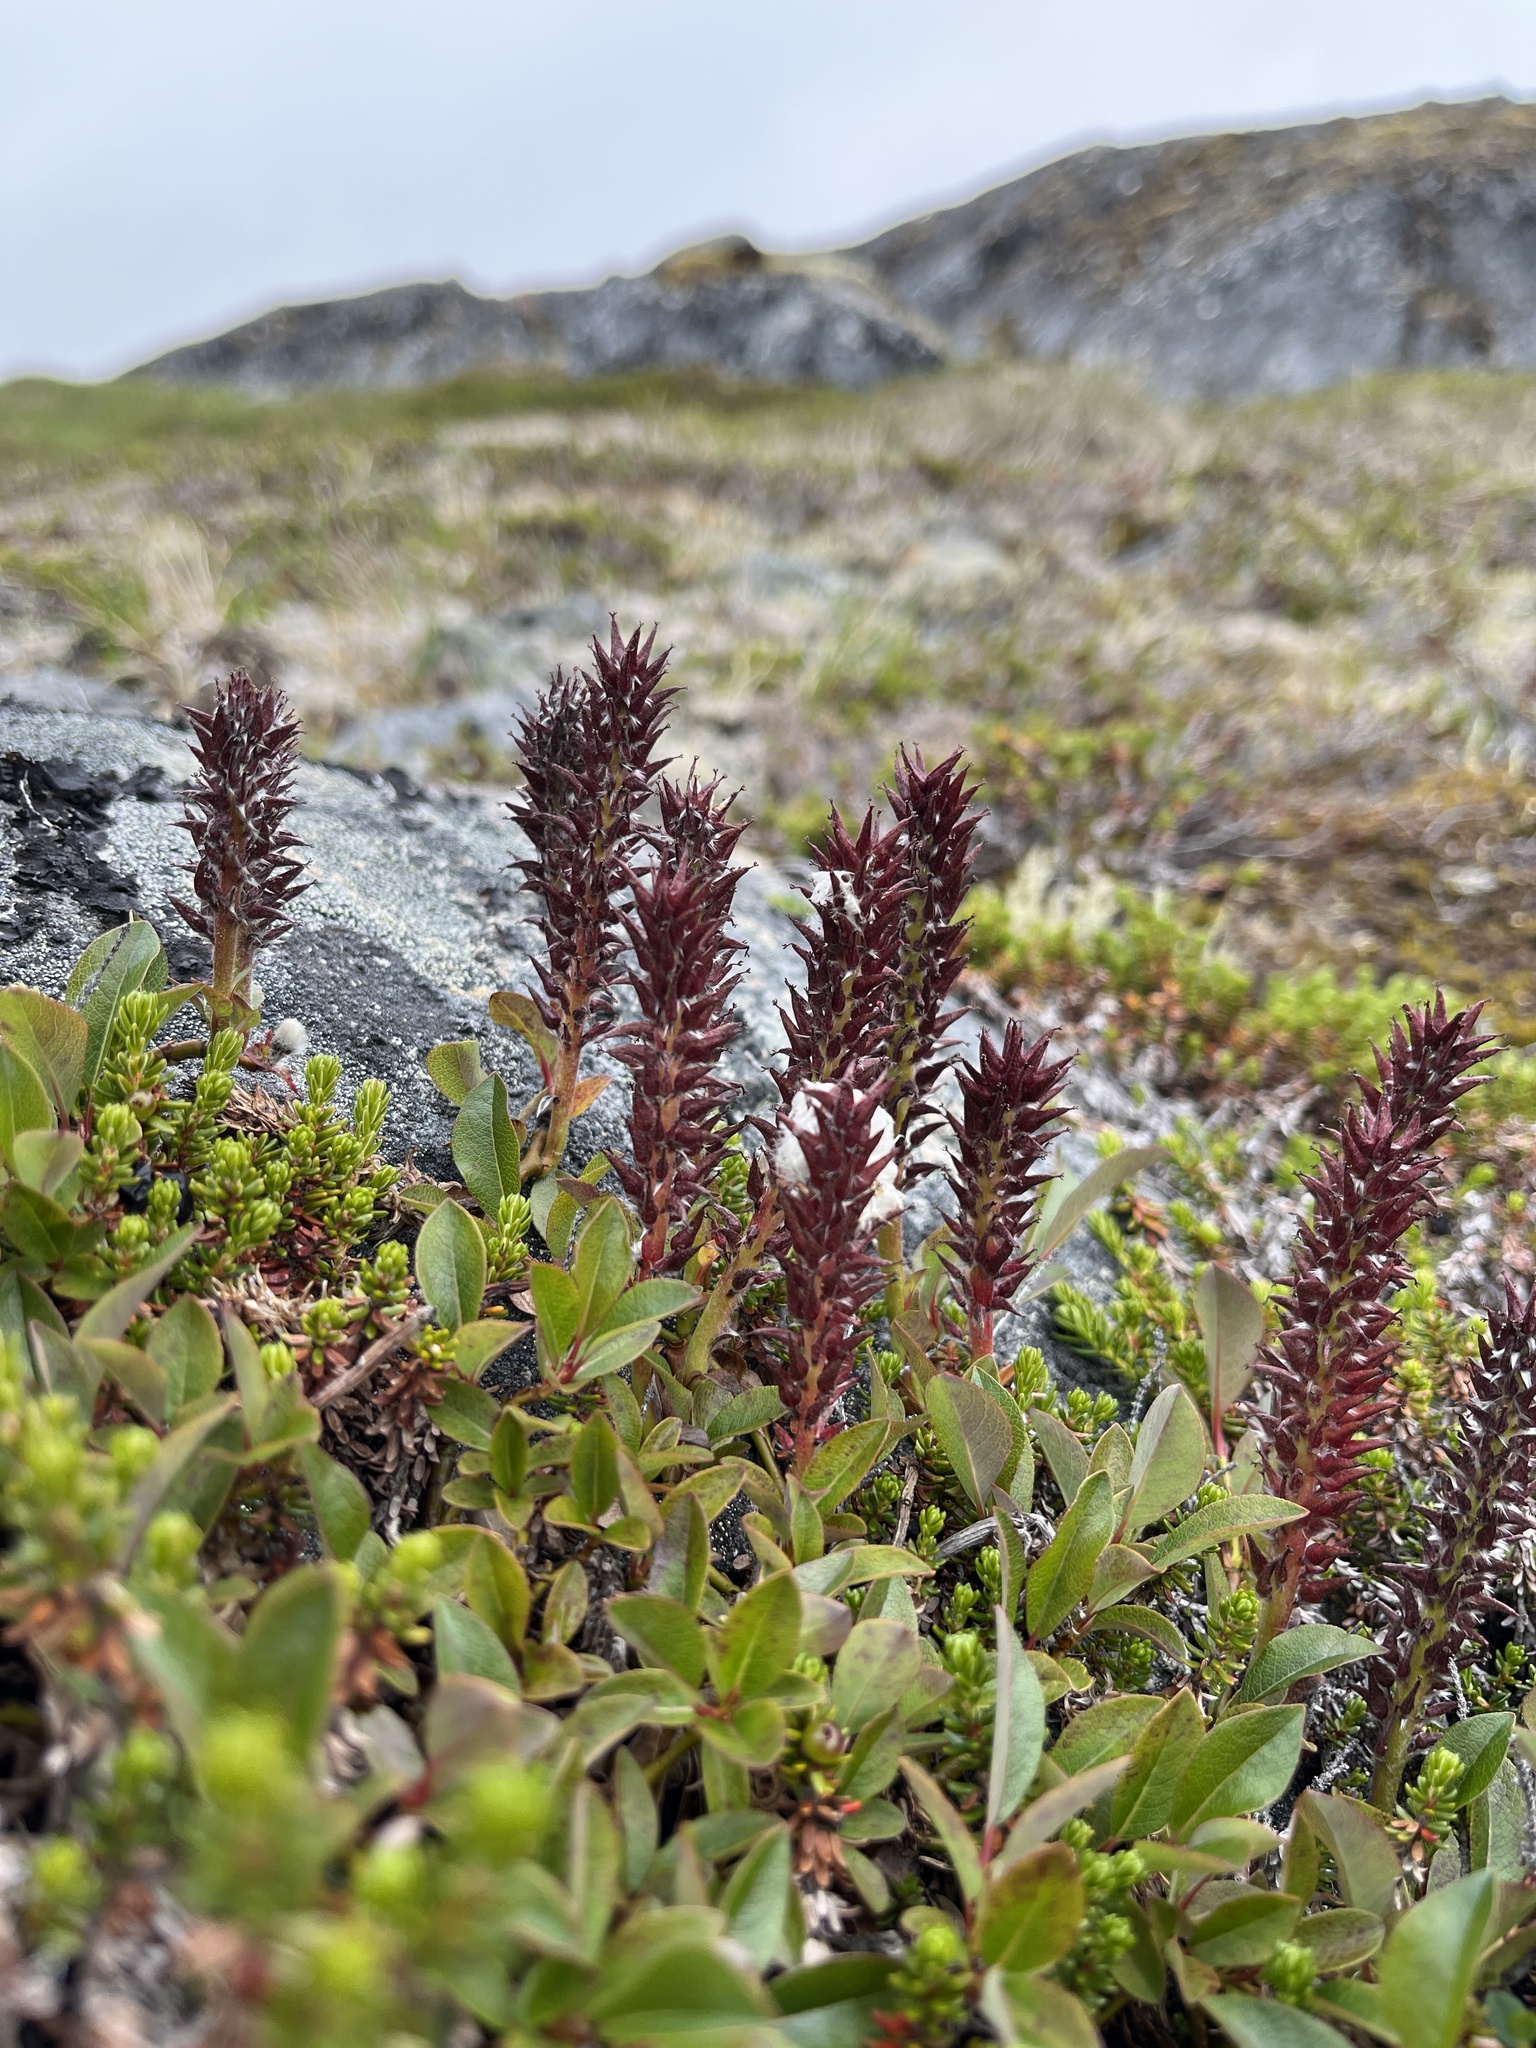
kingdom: Plantae
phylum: Tracheophyta
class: Magnoliopsida
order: Malpighiales
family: Salicaceae
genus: Salix
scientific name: Salix arctophila
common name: Greenland willow
